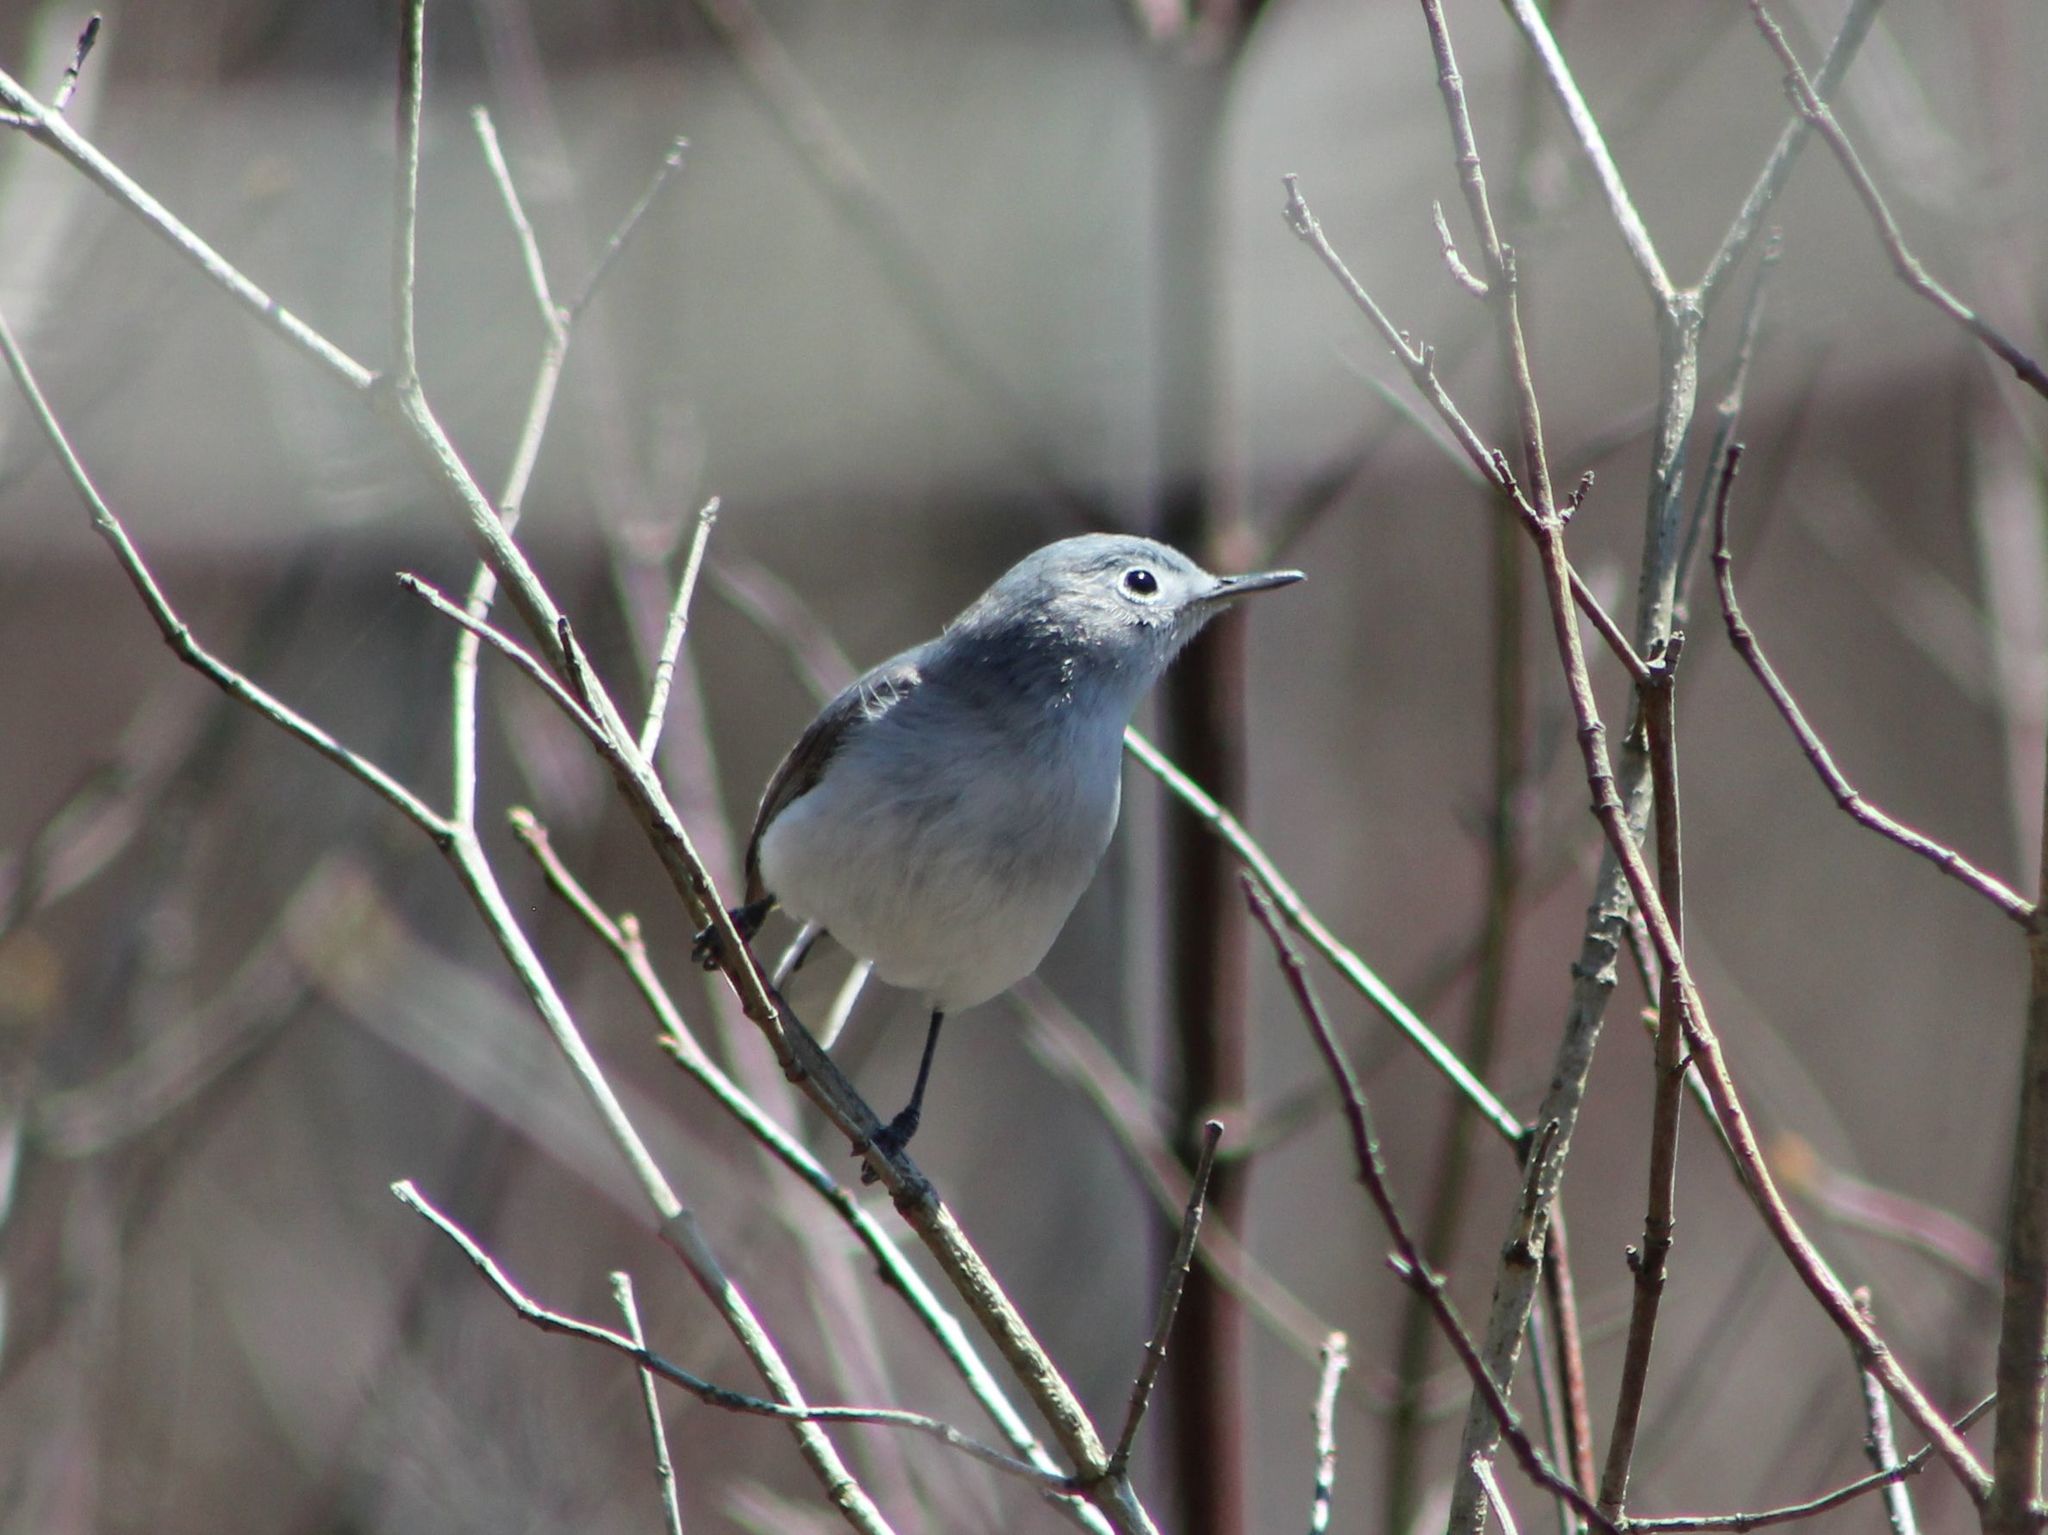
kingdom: Animalia
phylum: Chordata
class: Aves
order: Passeriformes
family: Polioptilidae
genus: Polioptila
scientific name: Polioptila caerulea
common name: Blue-gray gnatcatcher
